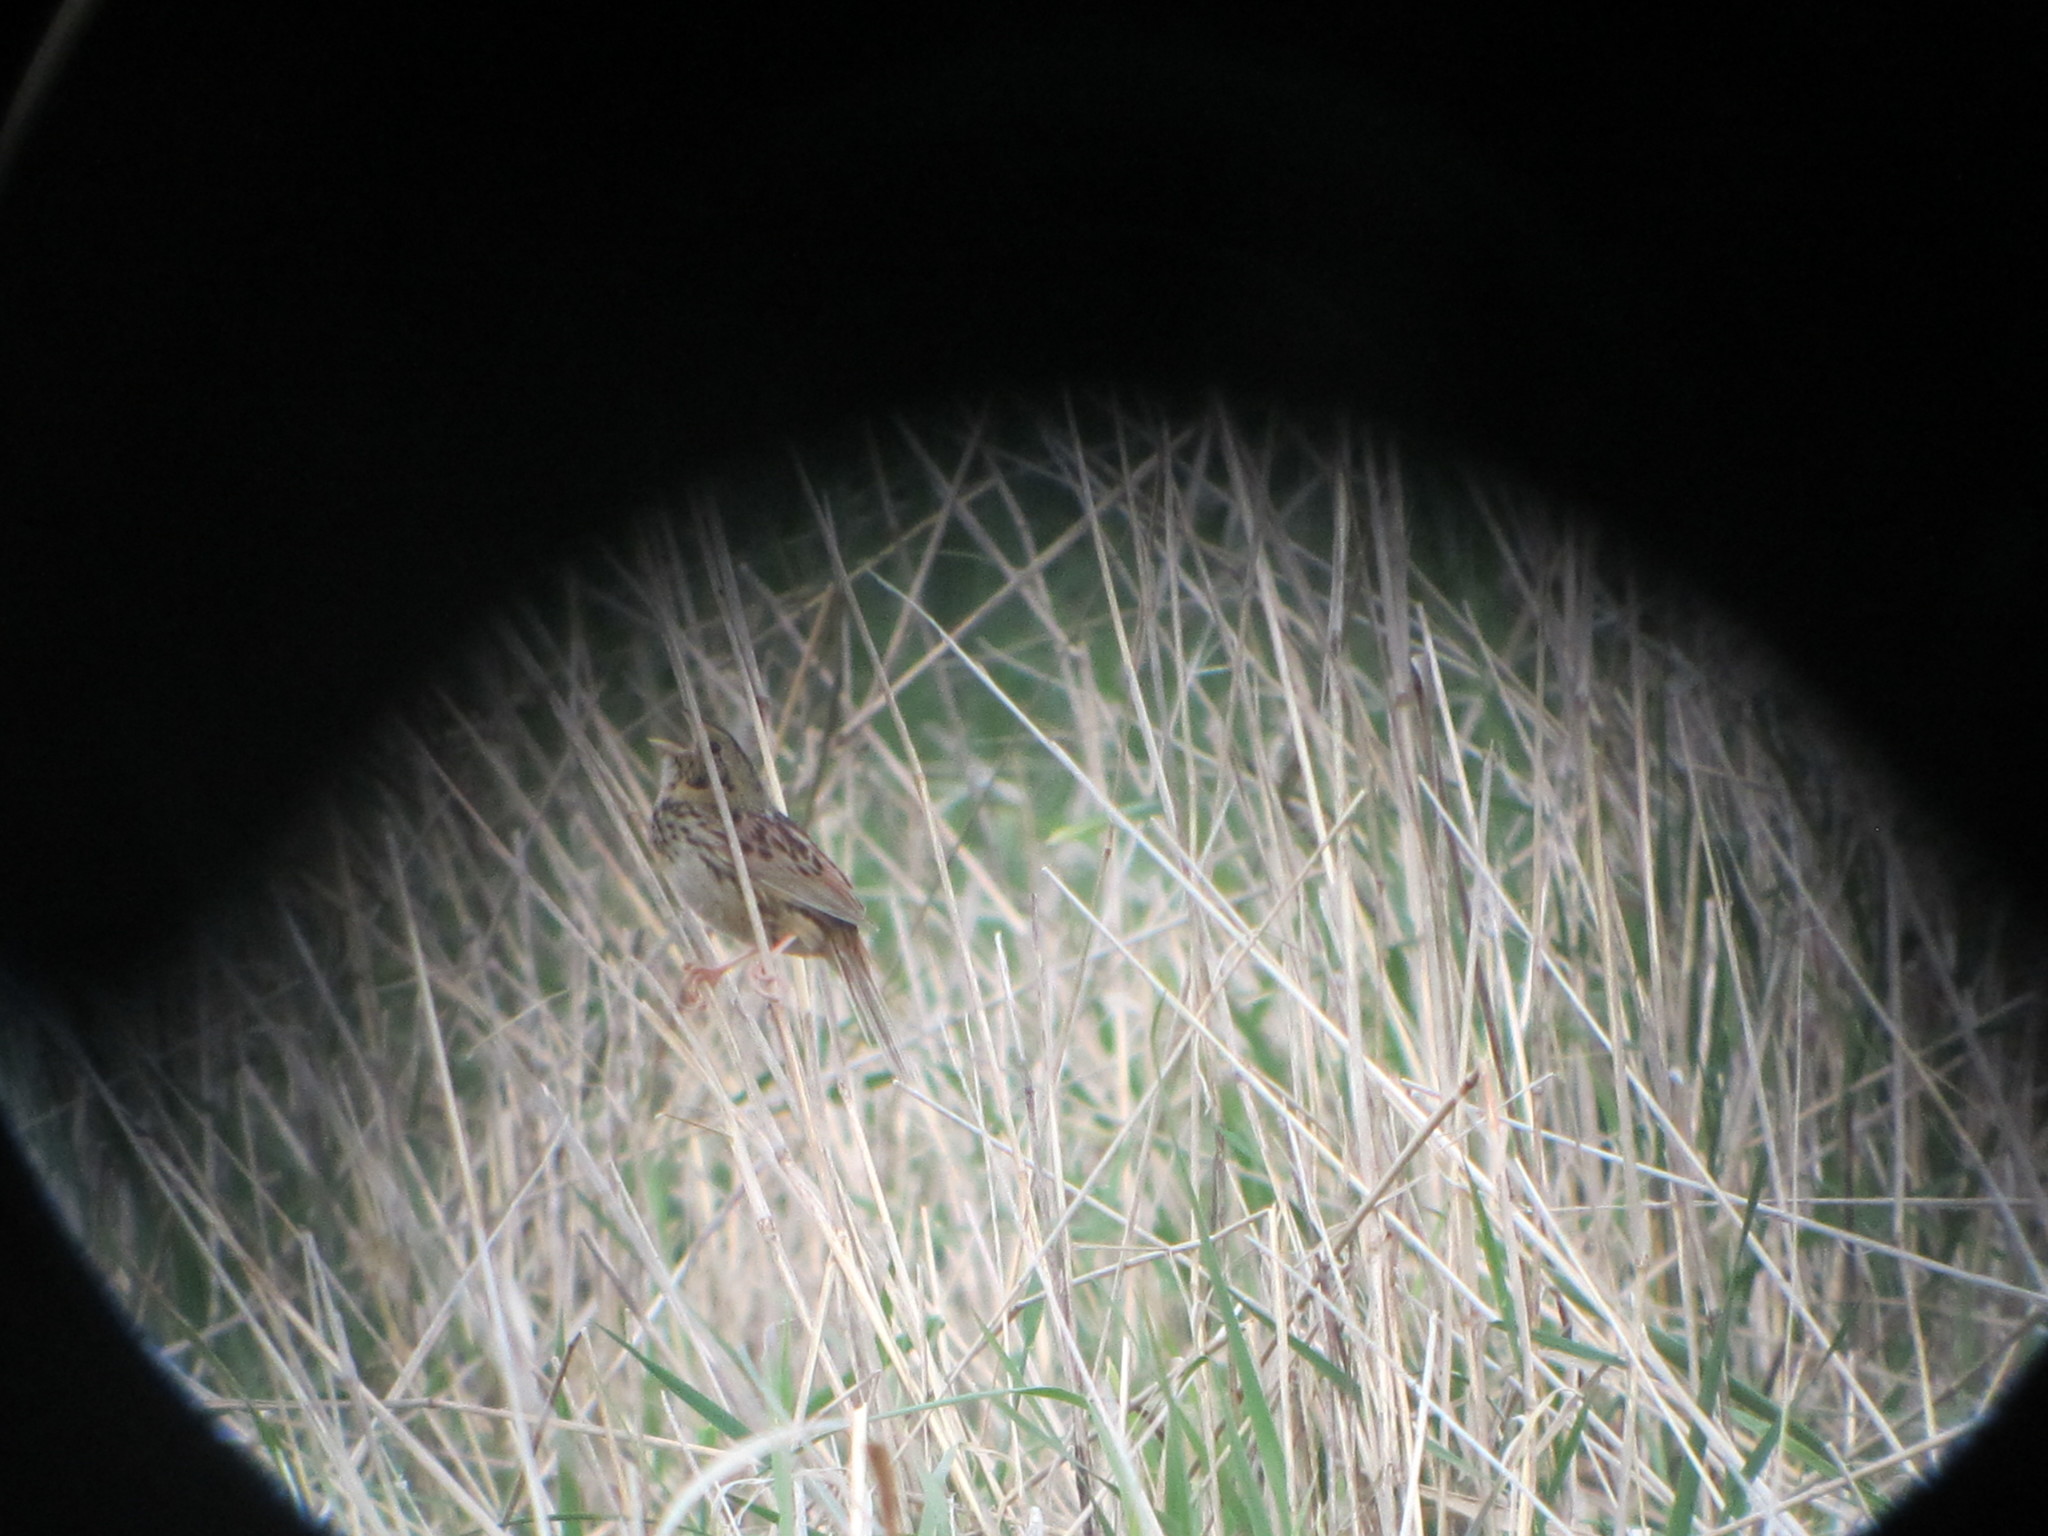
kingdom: Animalia
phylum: Chordata
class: Aves
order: Passeriformes
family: Passerellidae
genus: Centronyx
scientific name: Centronyx henslowii
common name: Henslow's sparrow
